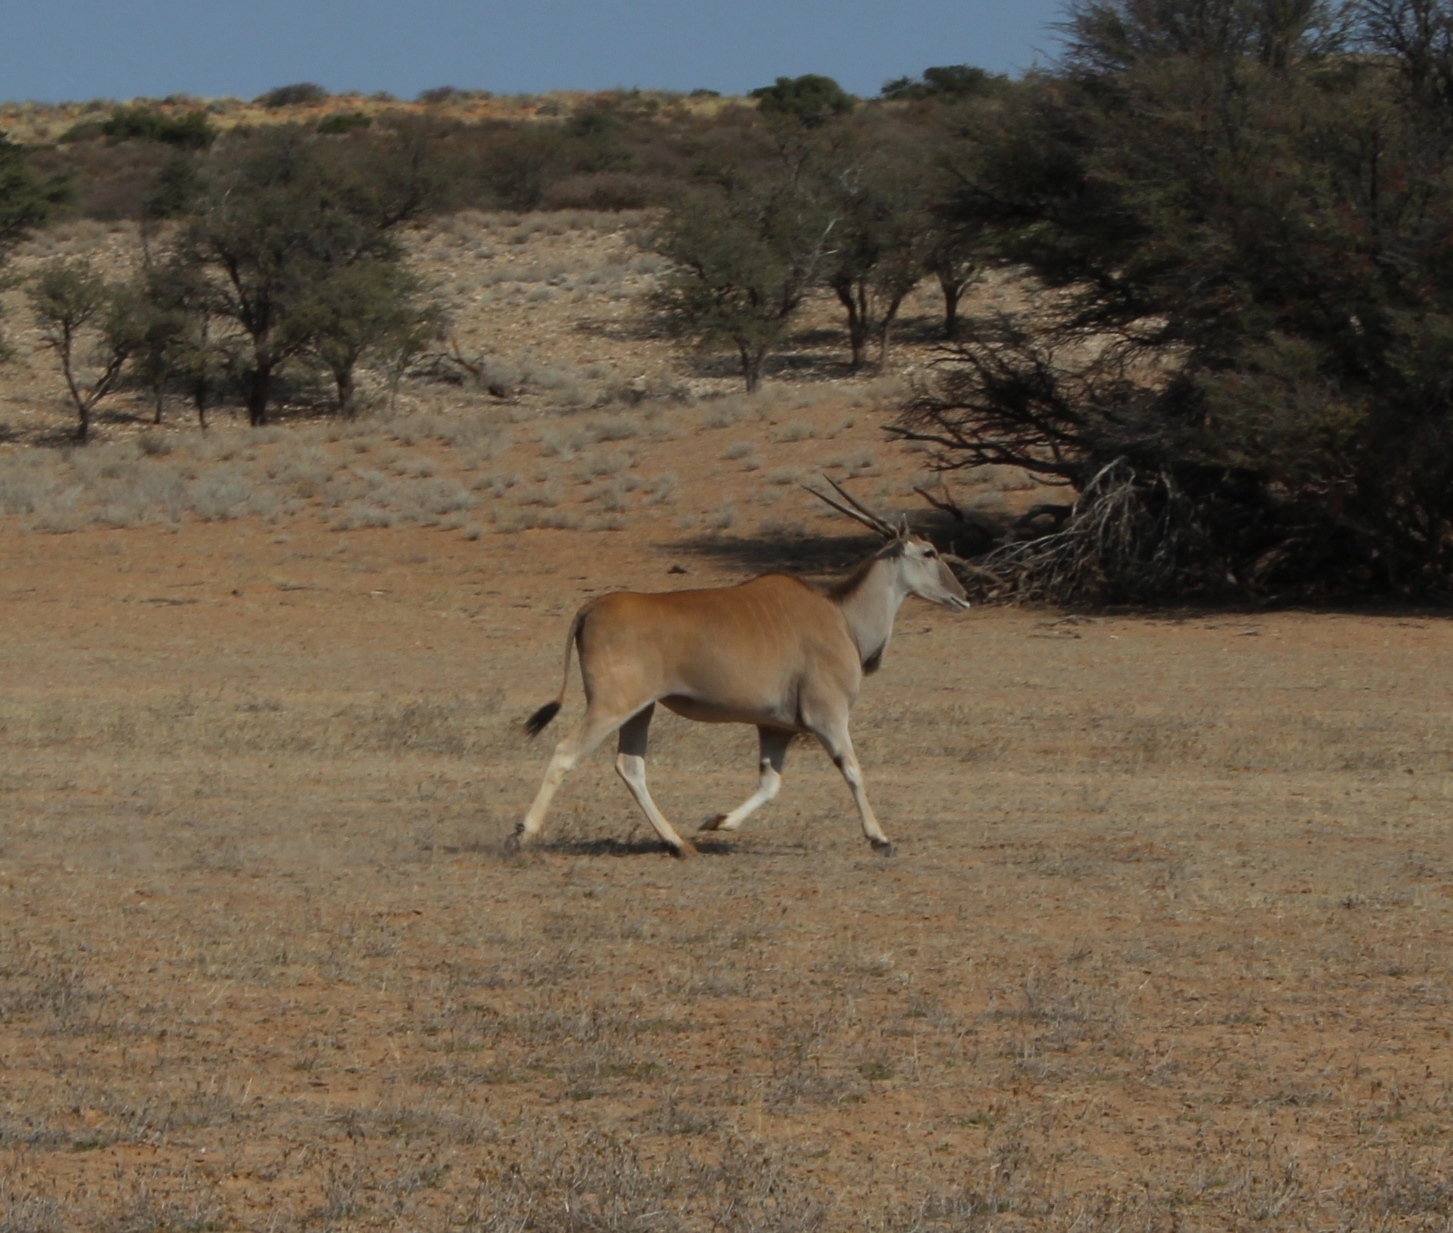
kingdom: Animalia
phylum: Chordata
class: Mammalia
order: Artiodactyla
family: Bovidae
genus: Taurotragus
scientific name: Taurotragus oryx
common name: Common eland
